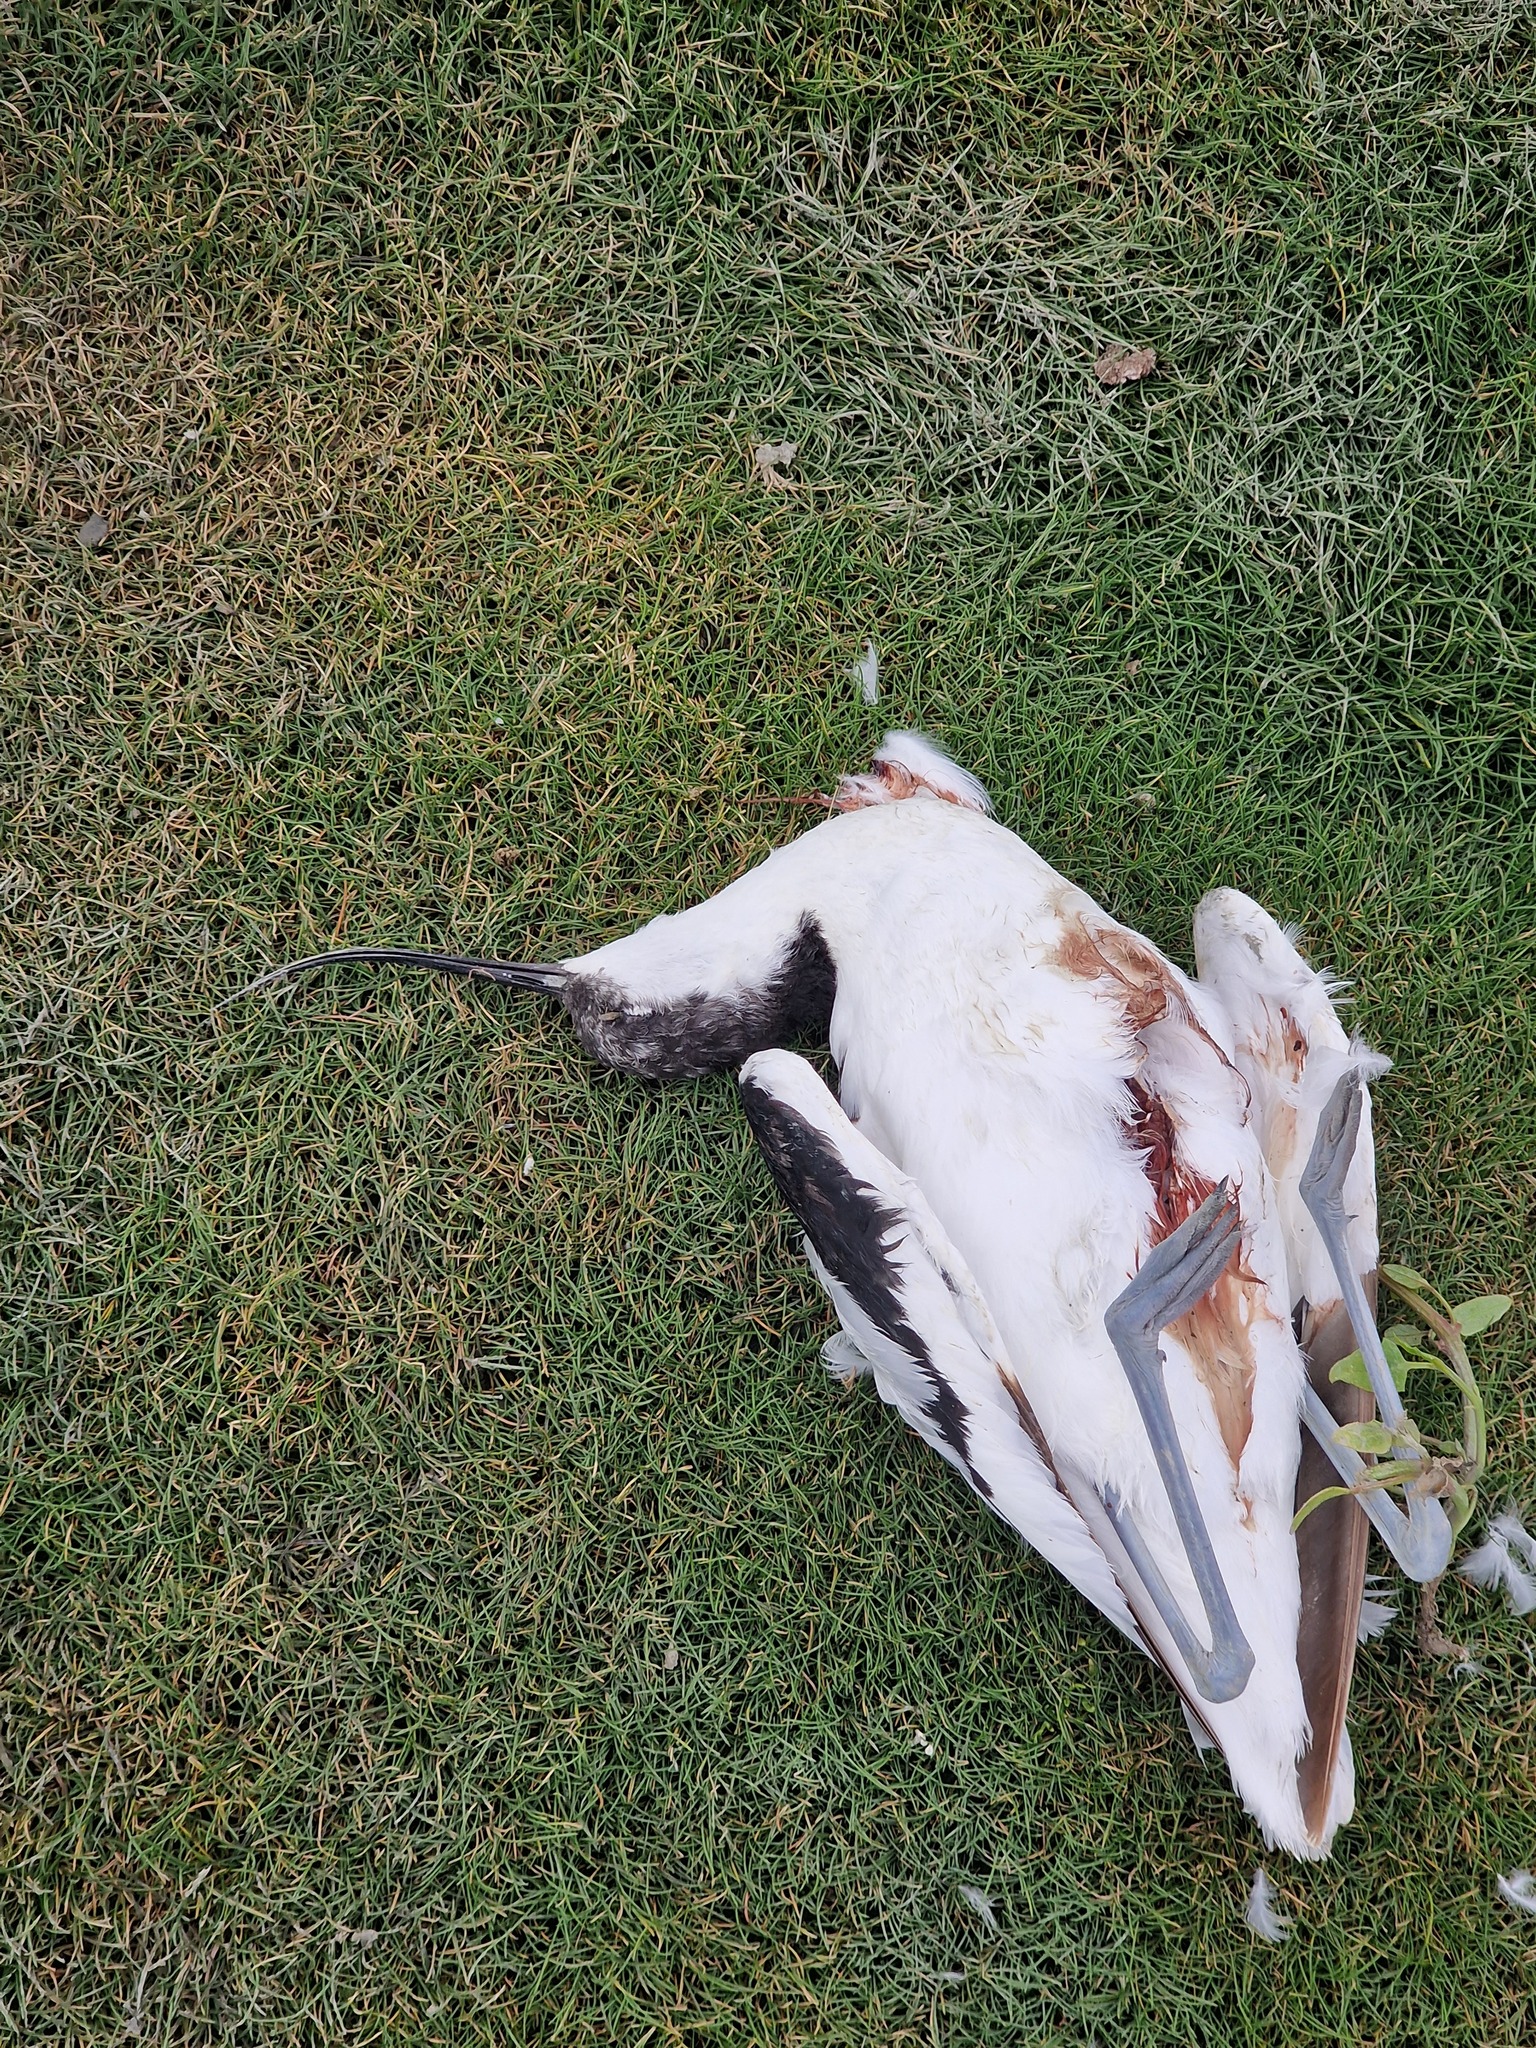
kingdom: Animalia
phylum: Chordata
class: Aves
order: Charadriiformes
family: Recurvirostridae
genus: Recurvirostra
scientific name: Recurvirostra avosetta
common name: Pied avocet
